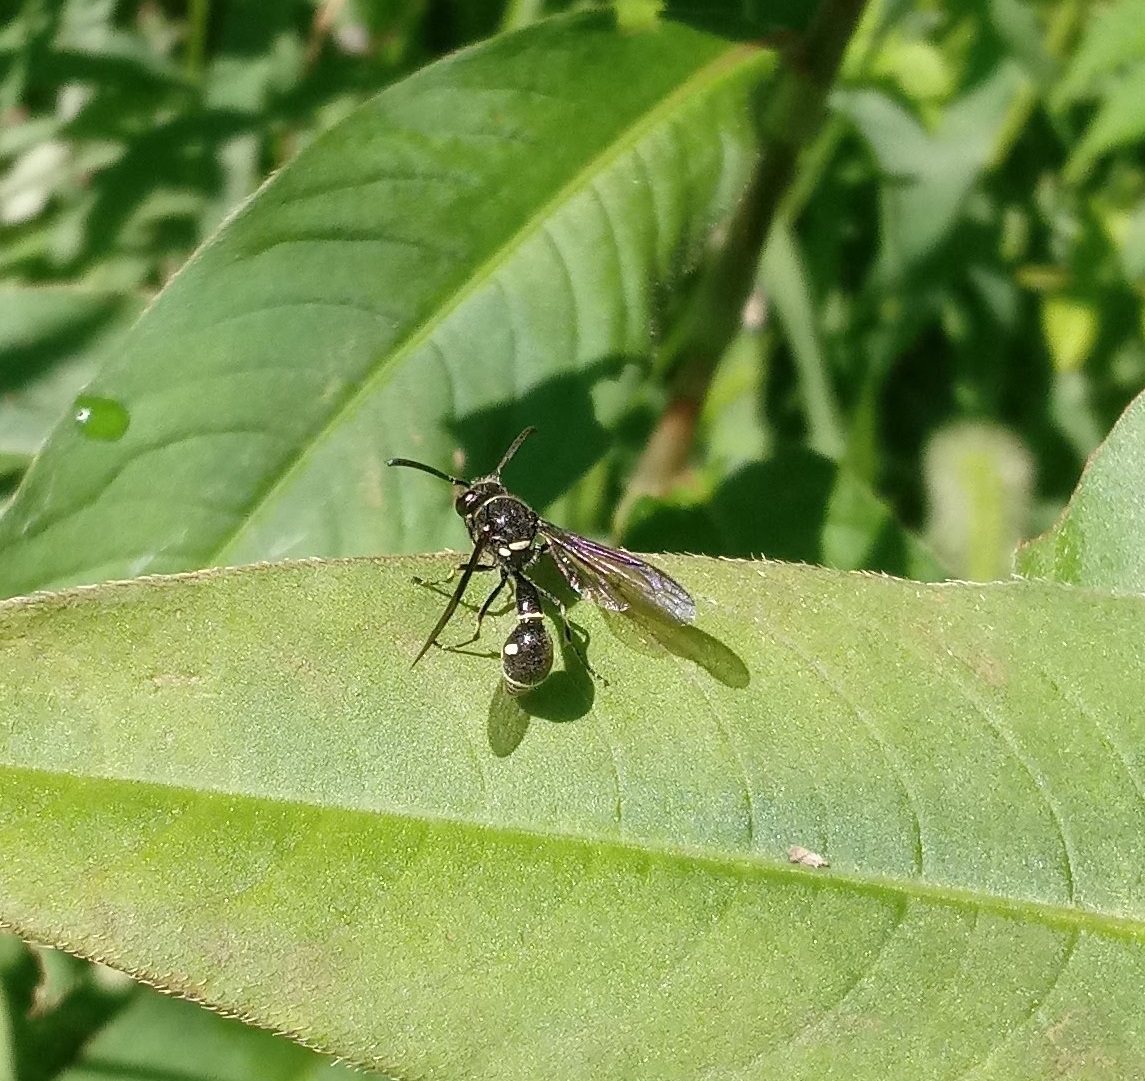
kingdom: Animalia
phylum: Arthropoda
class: Insecta
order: Hymenoptera
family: Vespidae
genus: Eumenes
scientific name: Eumenes fraternus
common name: Fraternal potter wasp
